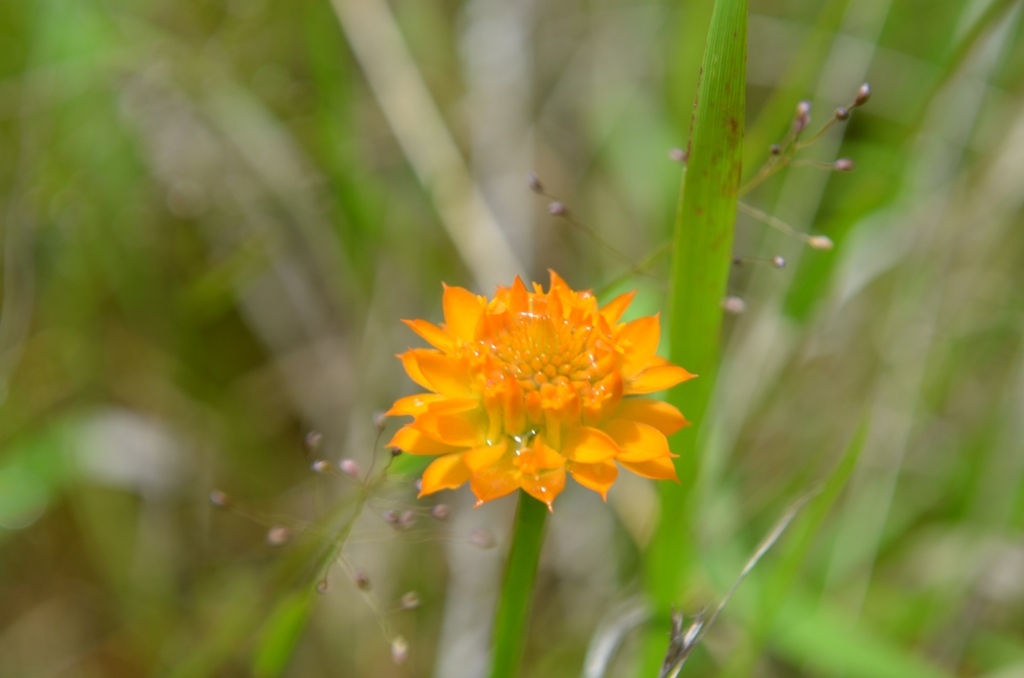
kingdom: Plantae
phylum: Tracheophyta
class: Magnoliopsida
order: Fabales
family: Polygalaceae
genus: Polygala
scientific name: Polygala lutea
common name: Orange milkwort
